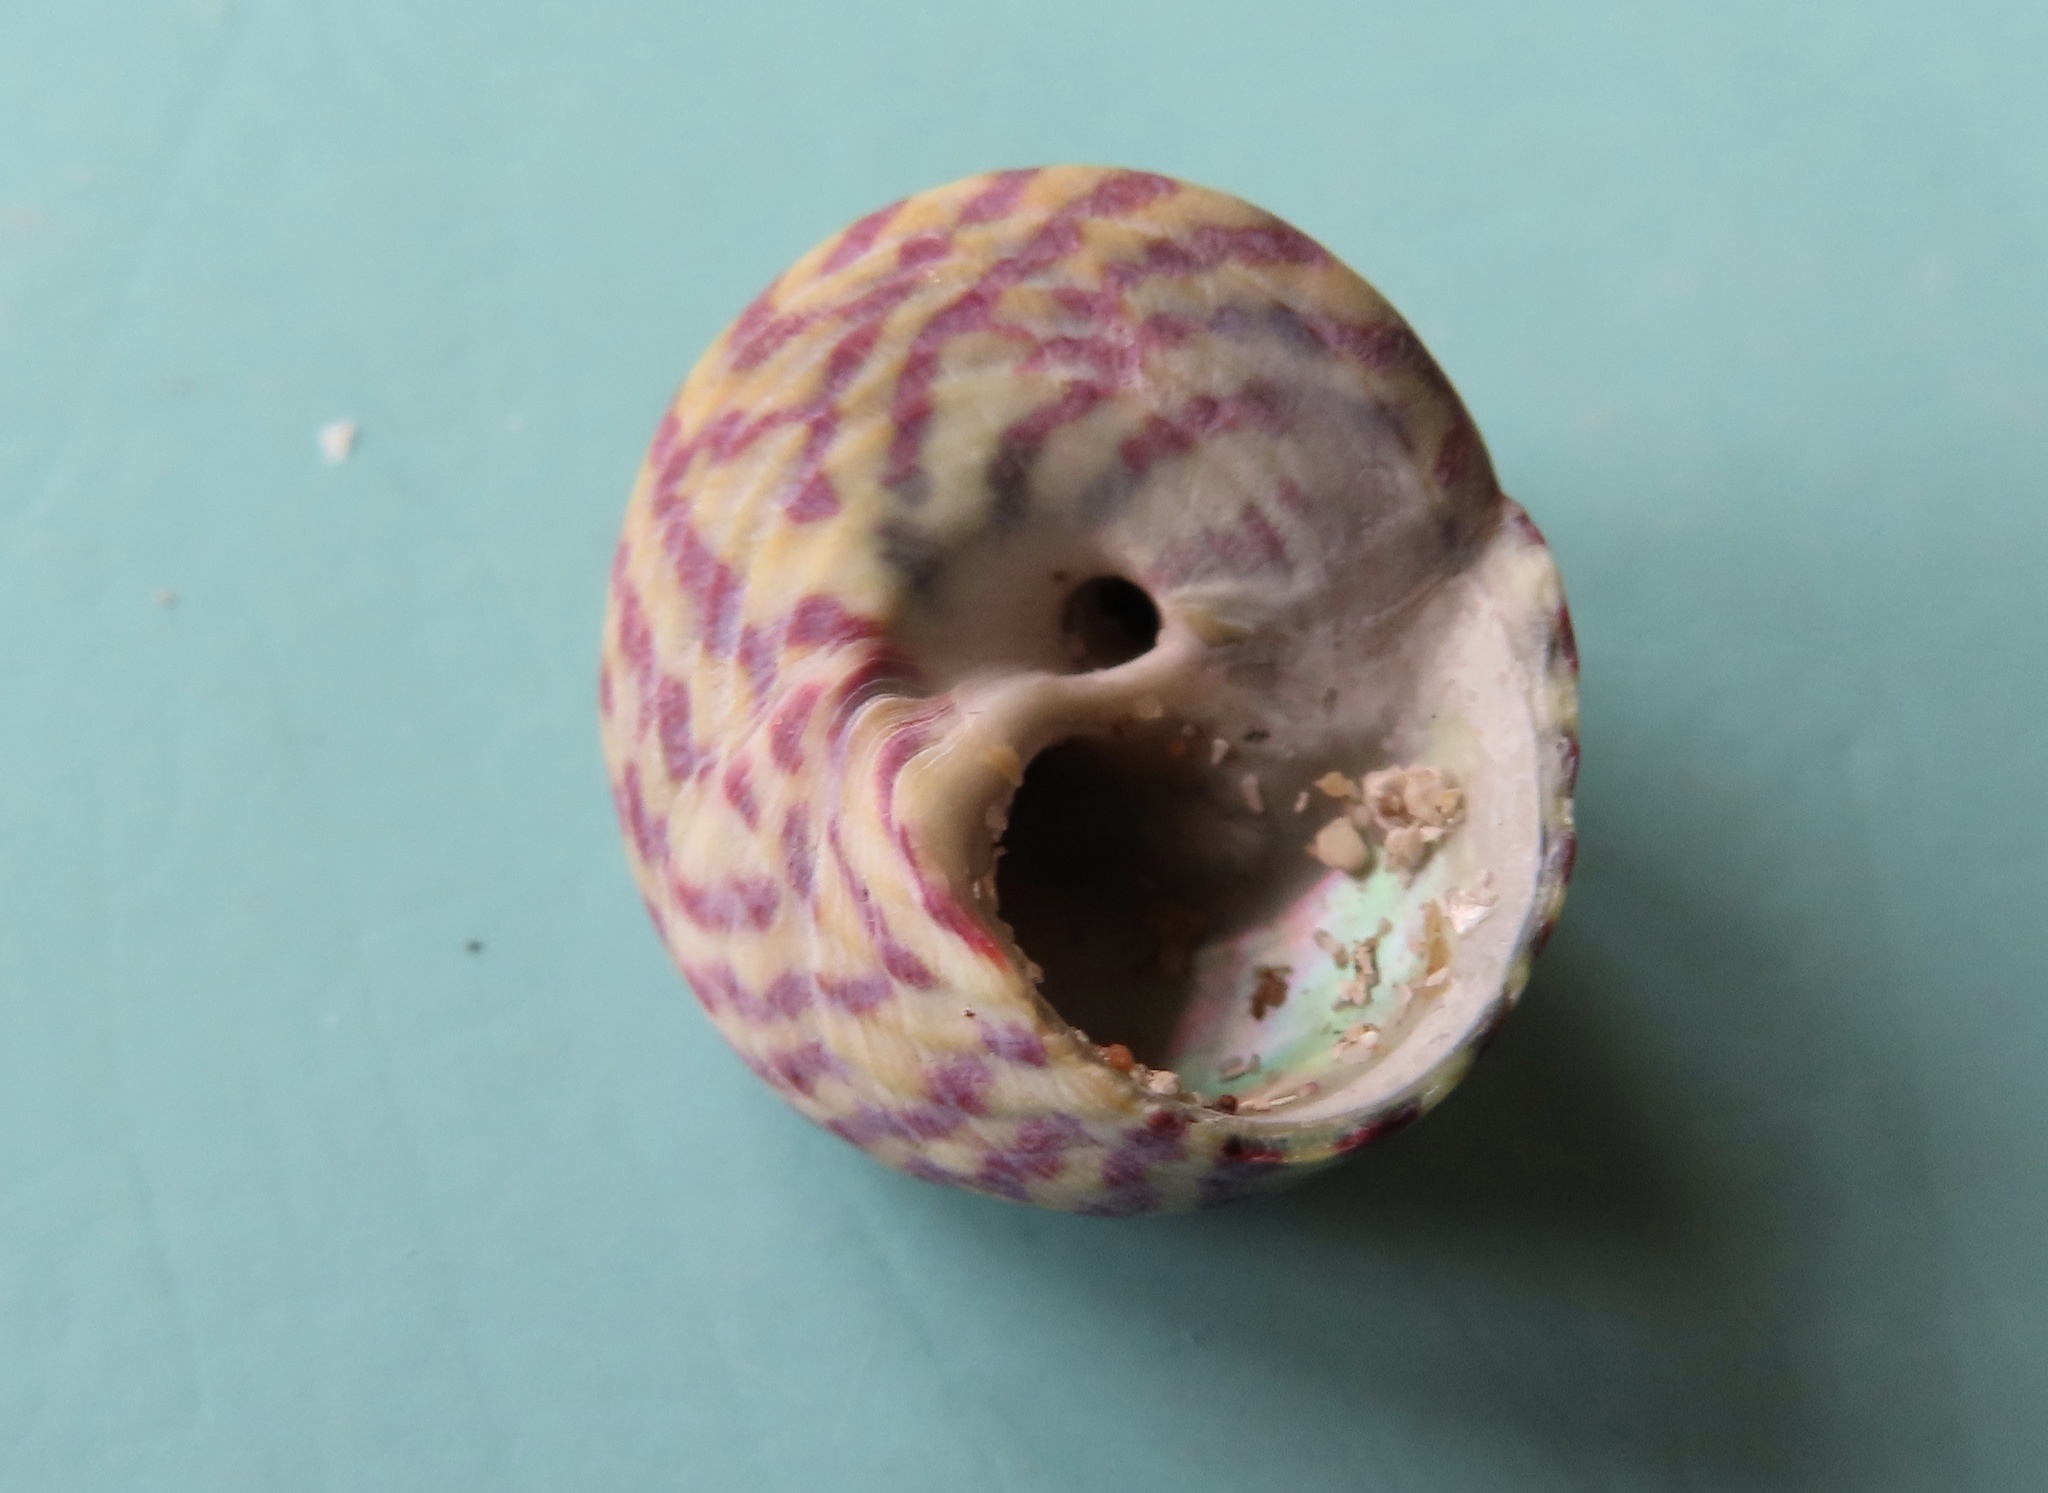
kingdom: Animalia
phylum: Mollusca
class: Gastropoda
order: Trochida
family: Trochidae
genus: Steromphala
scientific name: Steromphala umbilicalis
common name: Flat top shell
